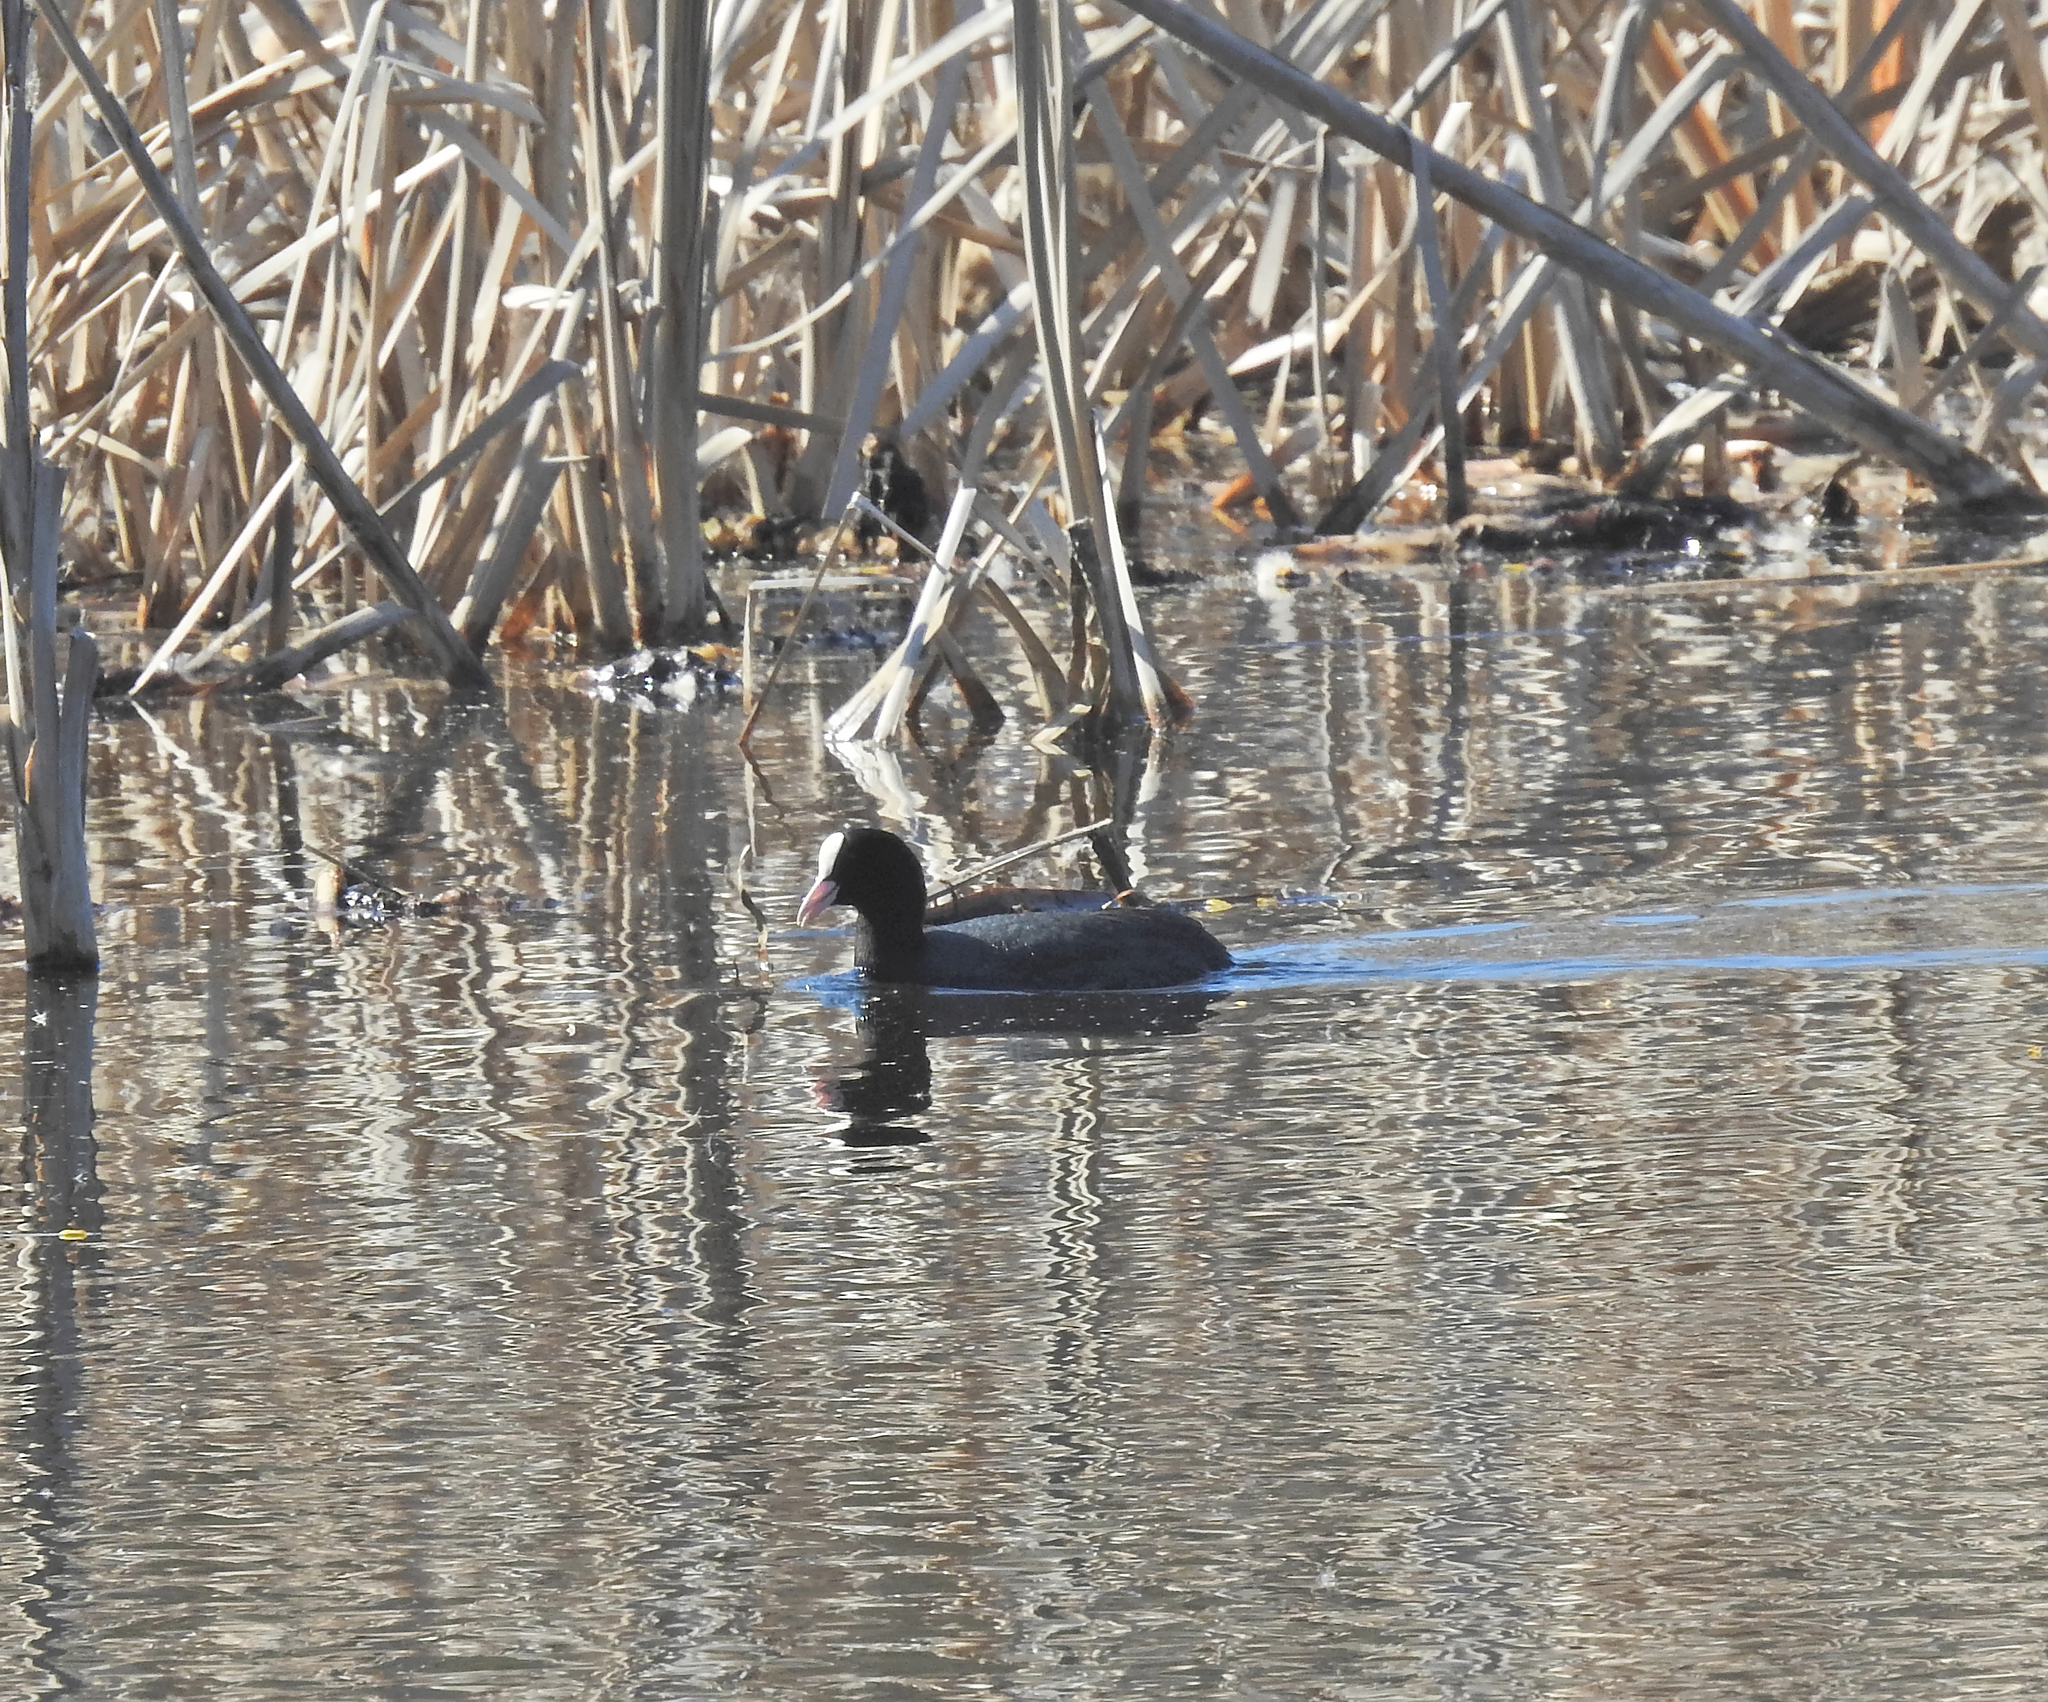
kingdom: Animalia
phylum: Chordata
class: Aves
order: Gruiformes
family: Rallidae
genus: Fulica
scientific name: Fulica atra
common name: Eurasian coot
